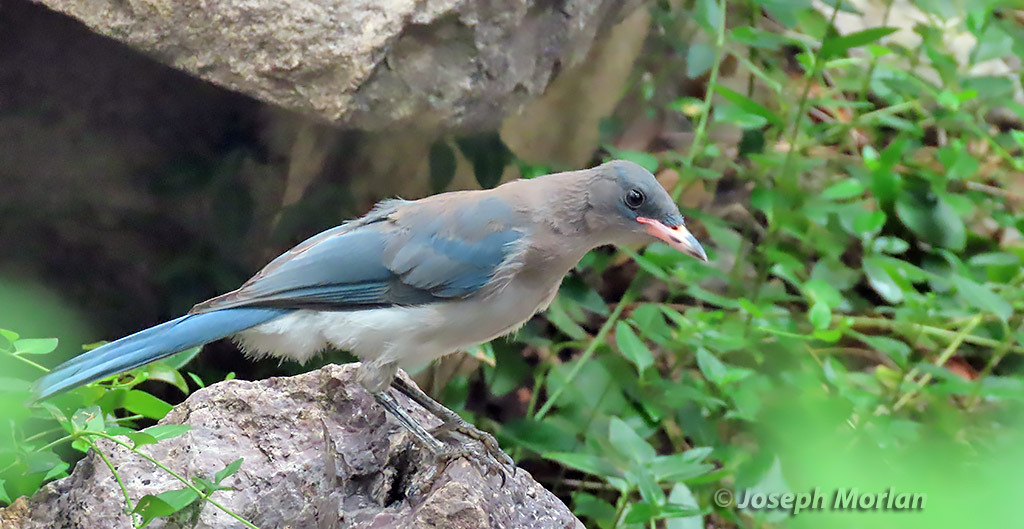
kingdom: Animalia
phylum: Chordata
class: Aves
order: Passeriformes
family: Corvidae
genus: Aphelocoma
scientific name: Aphelocoma wollweberi
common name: Mexican jay
